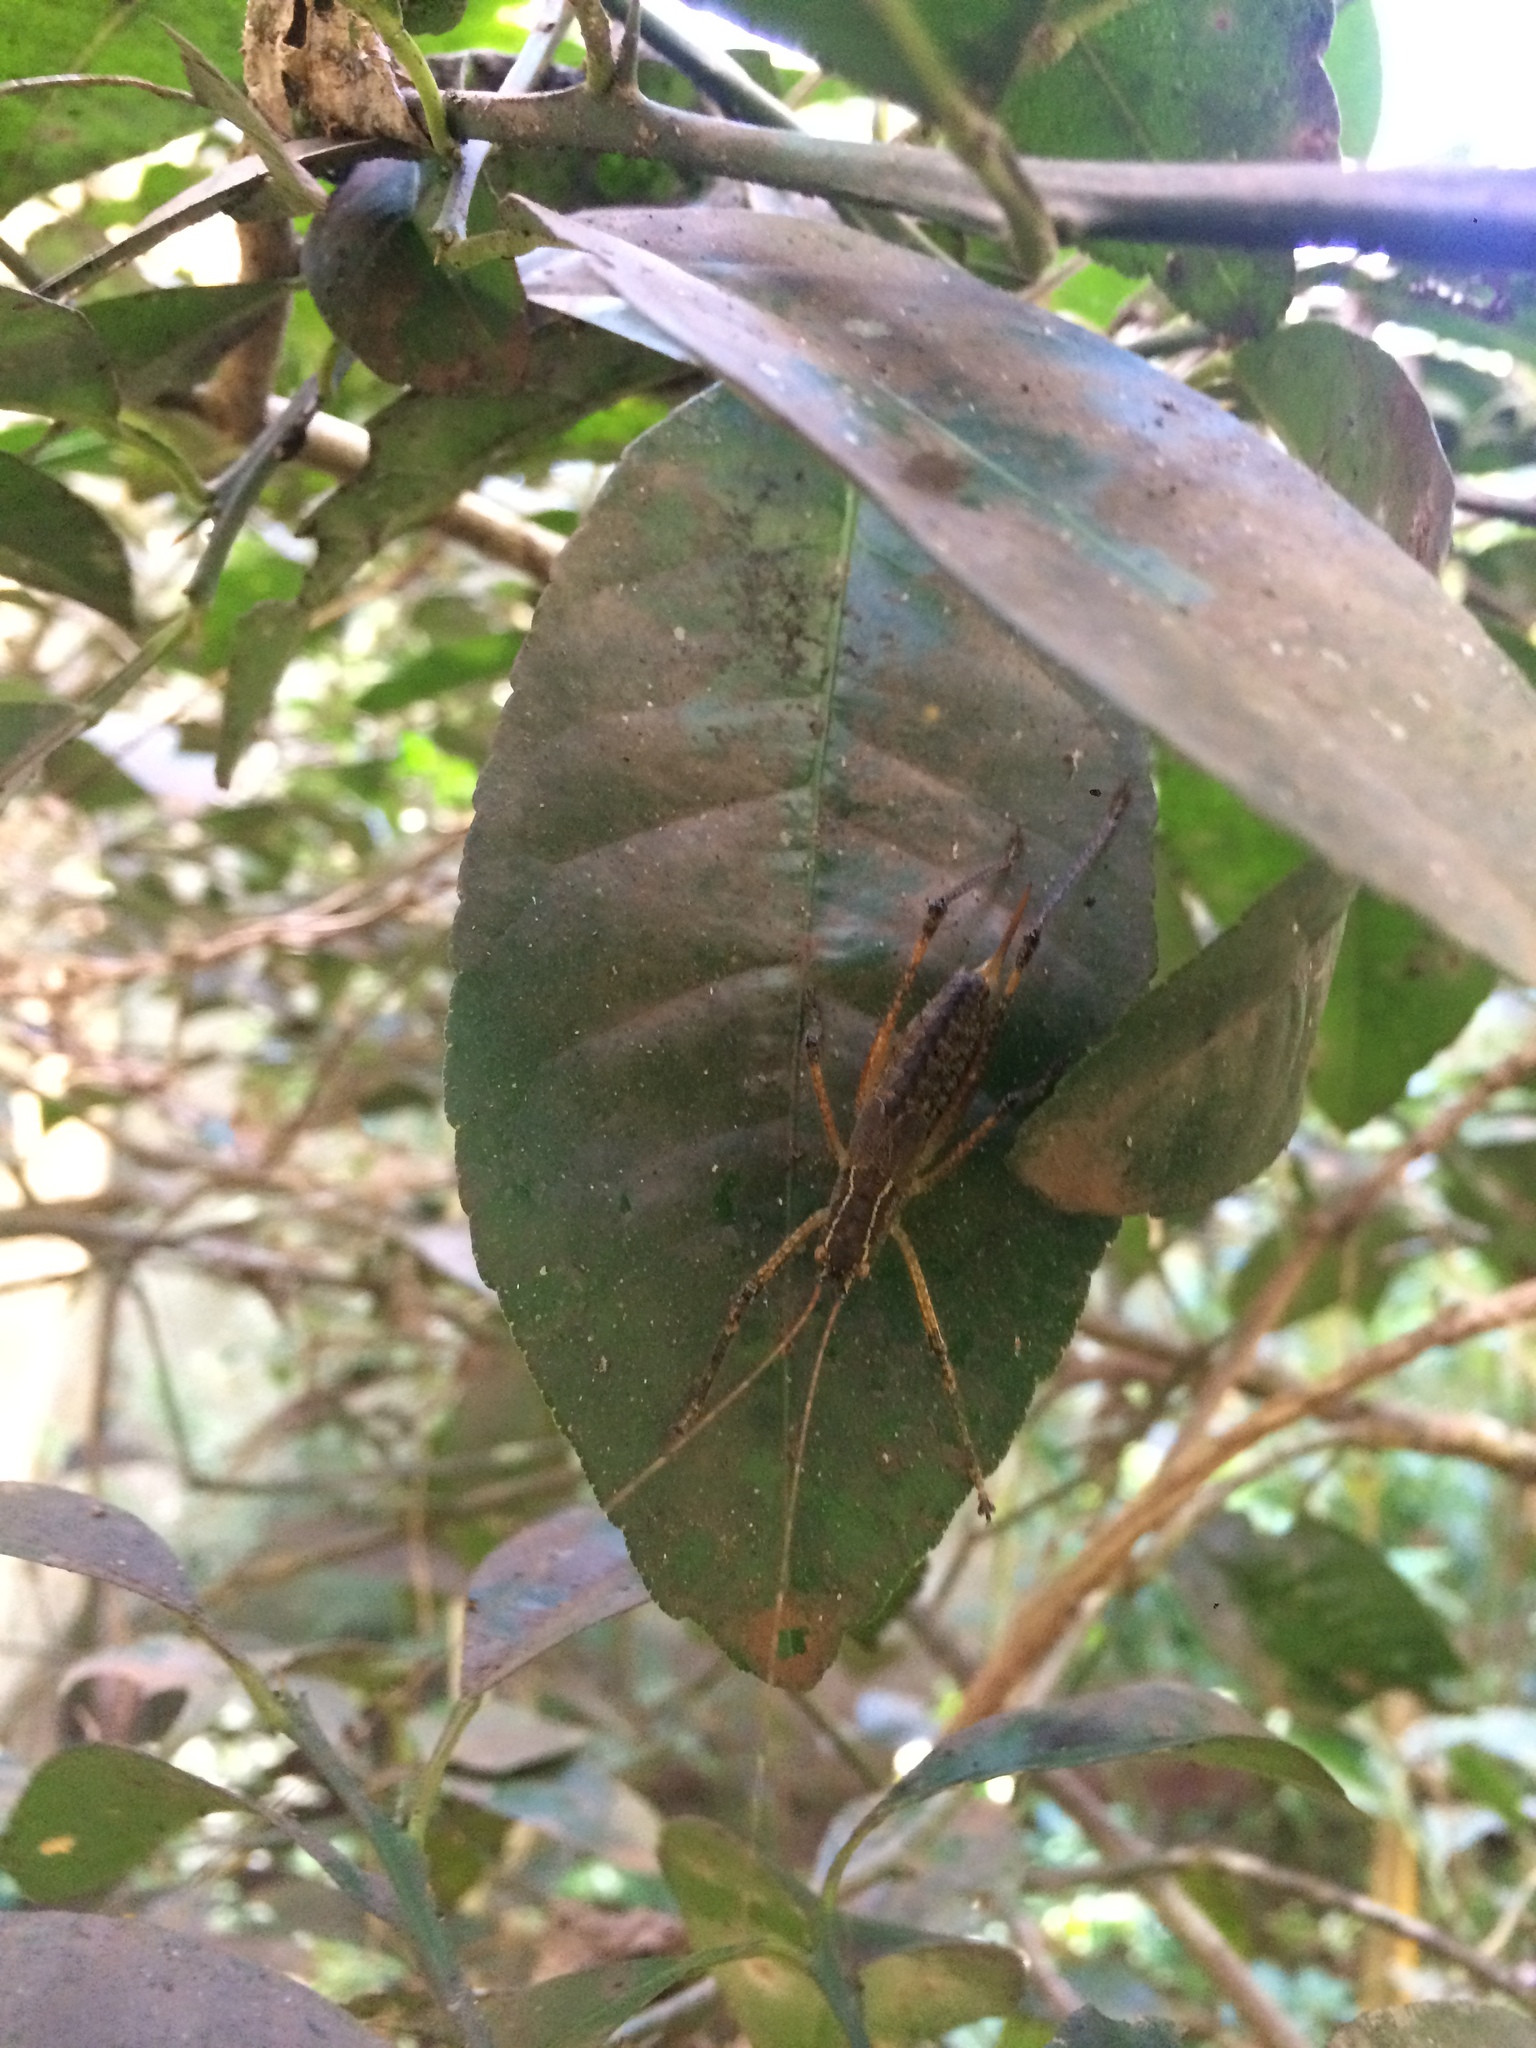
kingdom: Animalia
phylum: Arthropoda
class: Insecta
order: Orthoptera
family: Tettigoniidae
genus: Brachyteleutias
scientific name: Brachyteleutias bilineatus
